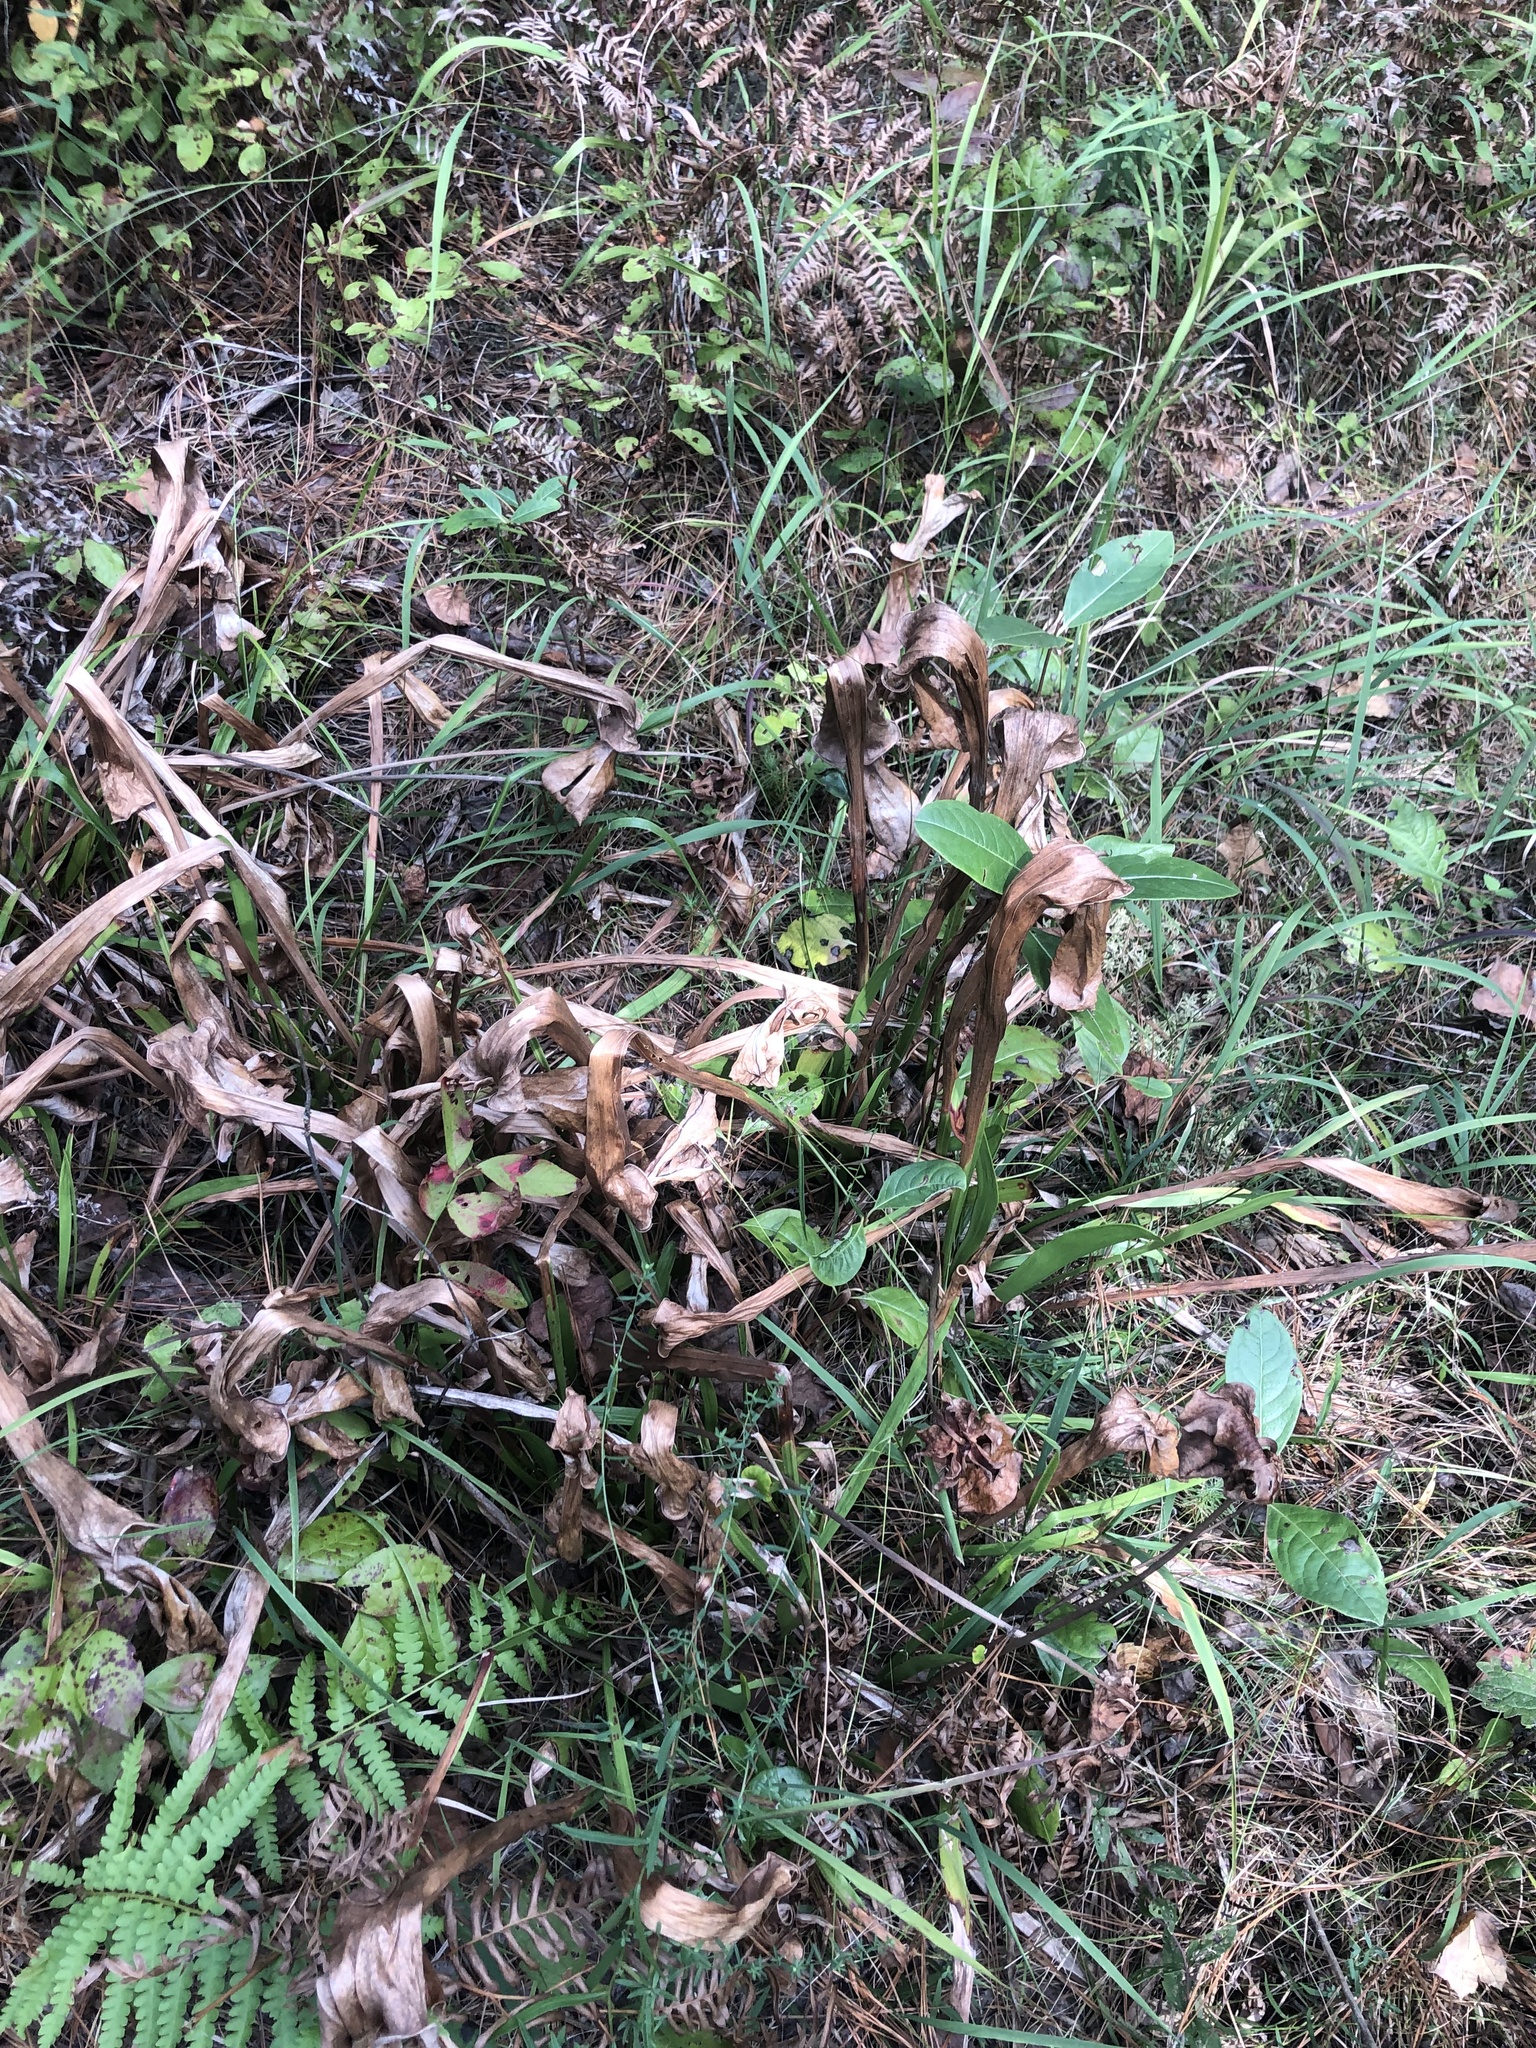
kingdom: Plantae
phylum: Tracheophyta
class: Magnoliopsida
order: Ericales
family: Sarraceniaceae
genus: Sarracenia
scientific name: Sarracenia flava
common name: Trumpets
